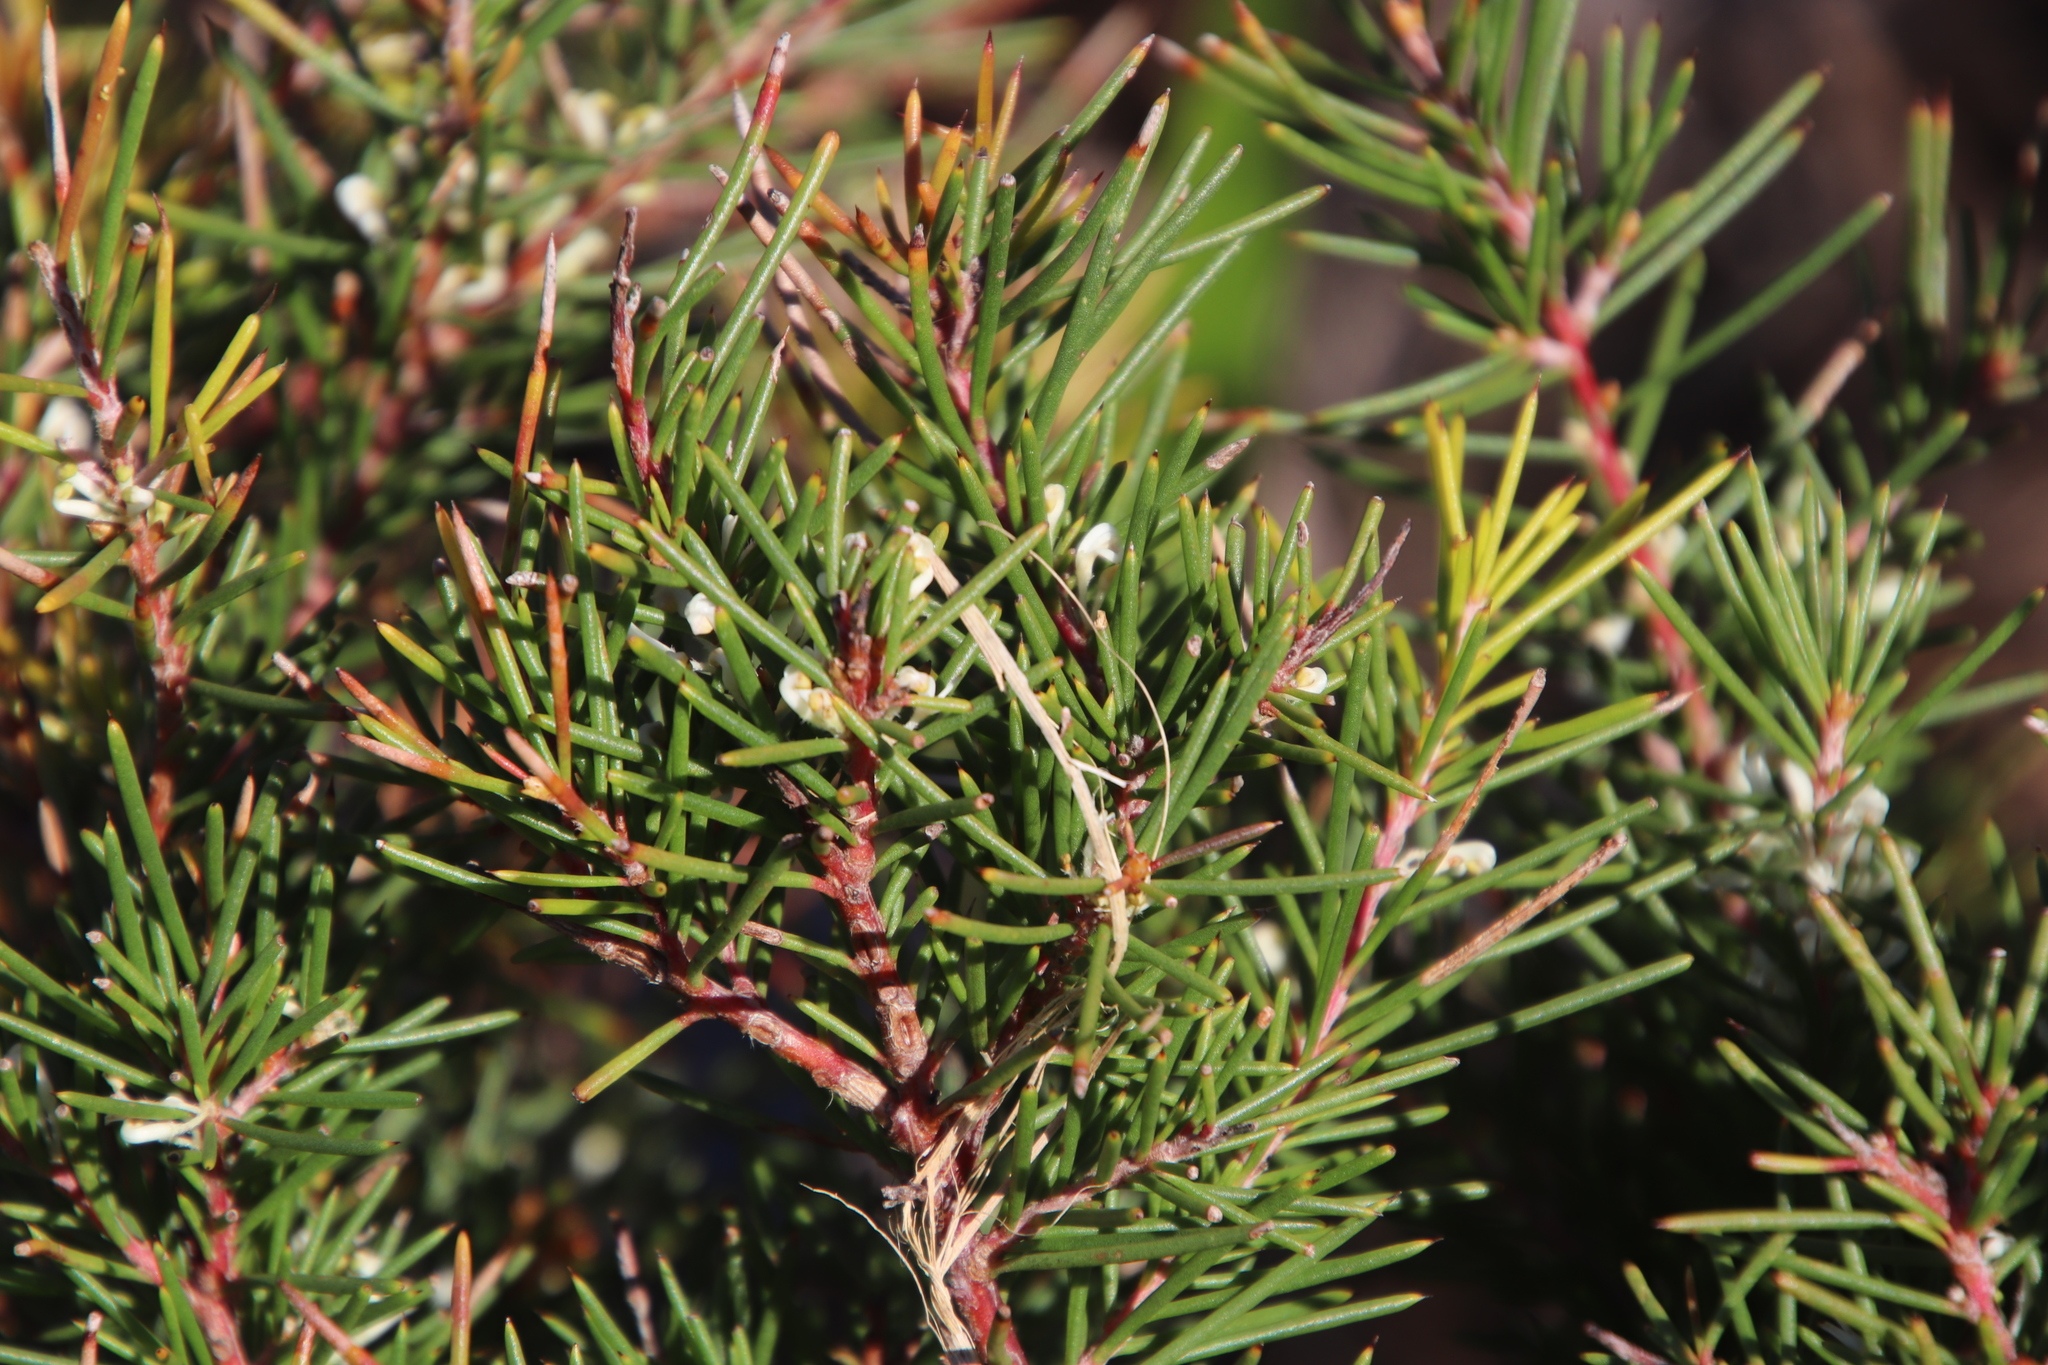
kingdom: Plantae
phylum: Tracheophyta
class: Magnoliopsida
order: Proteales
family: Proteaceae
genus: Hakea
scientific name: Hakea sericea
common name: Needle bush
